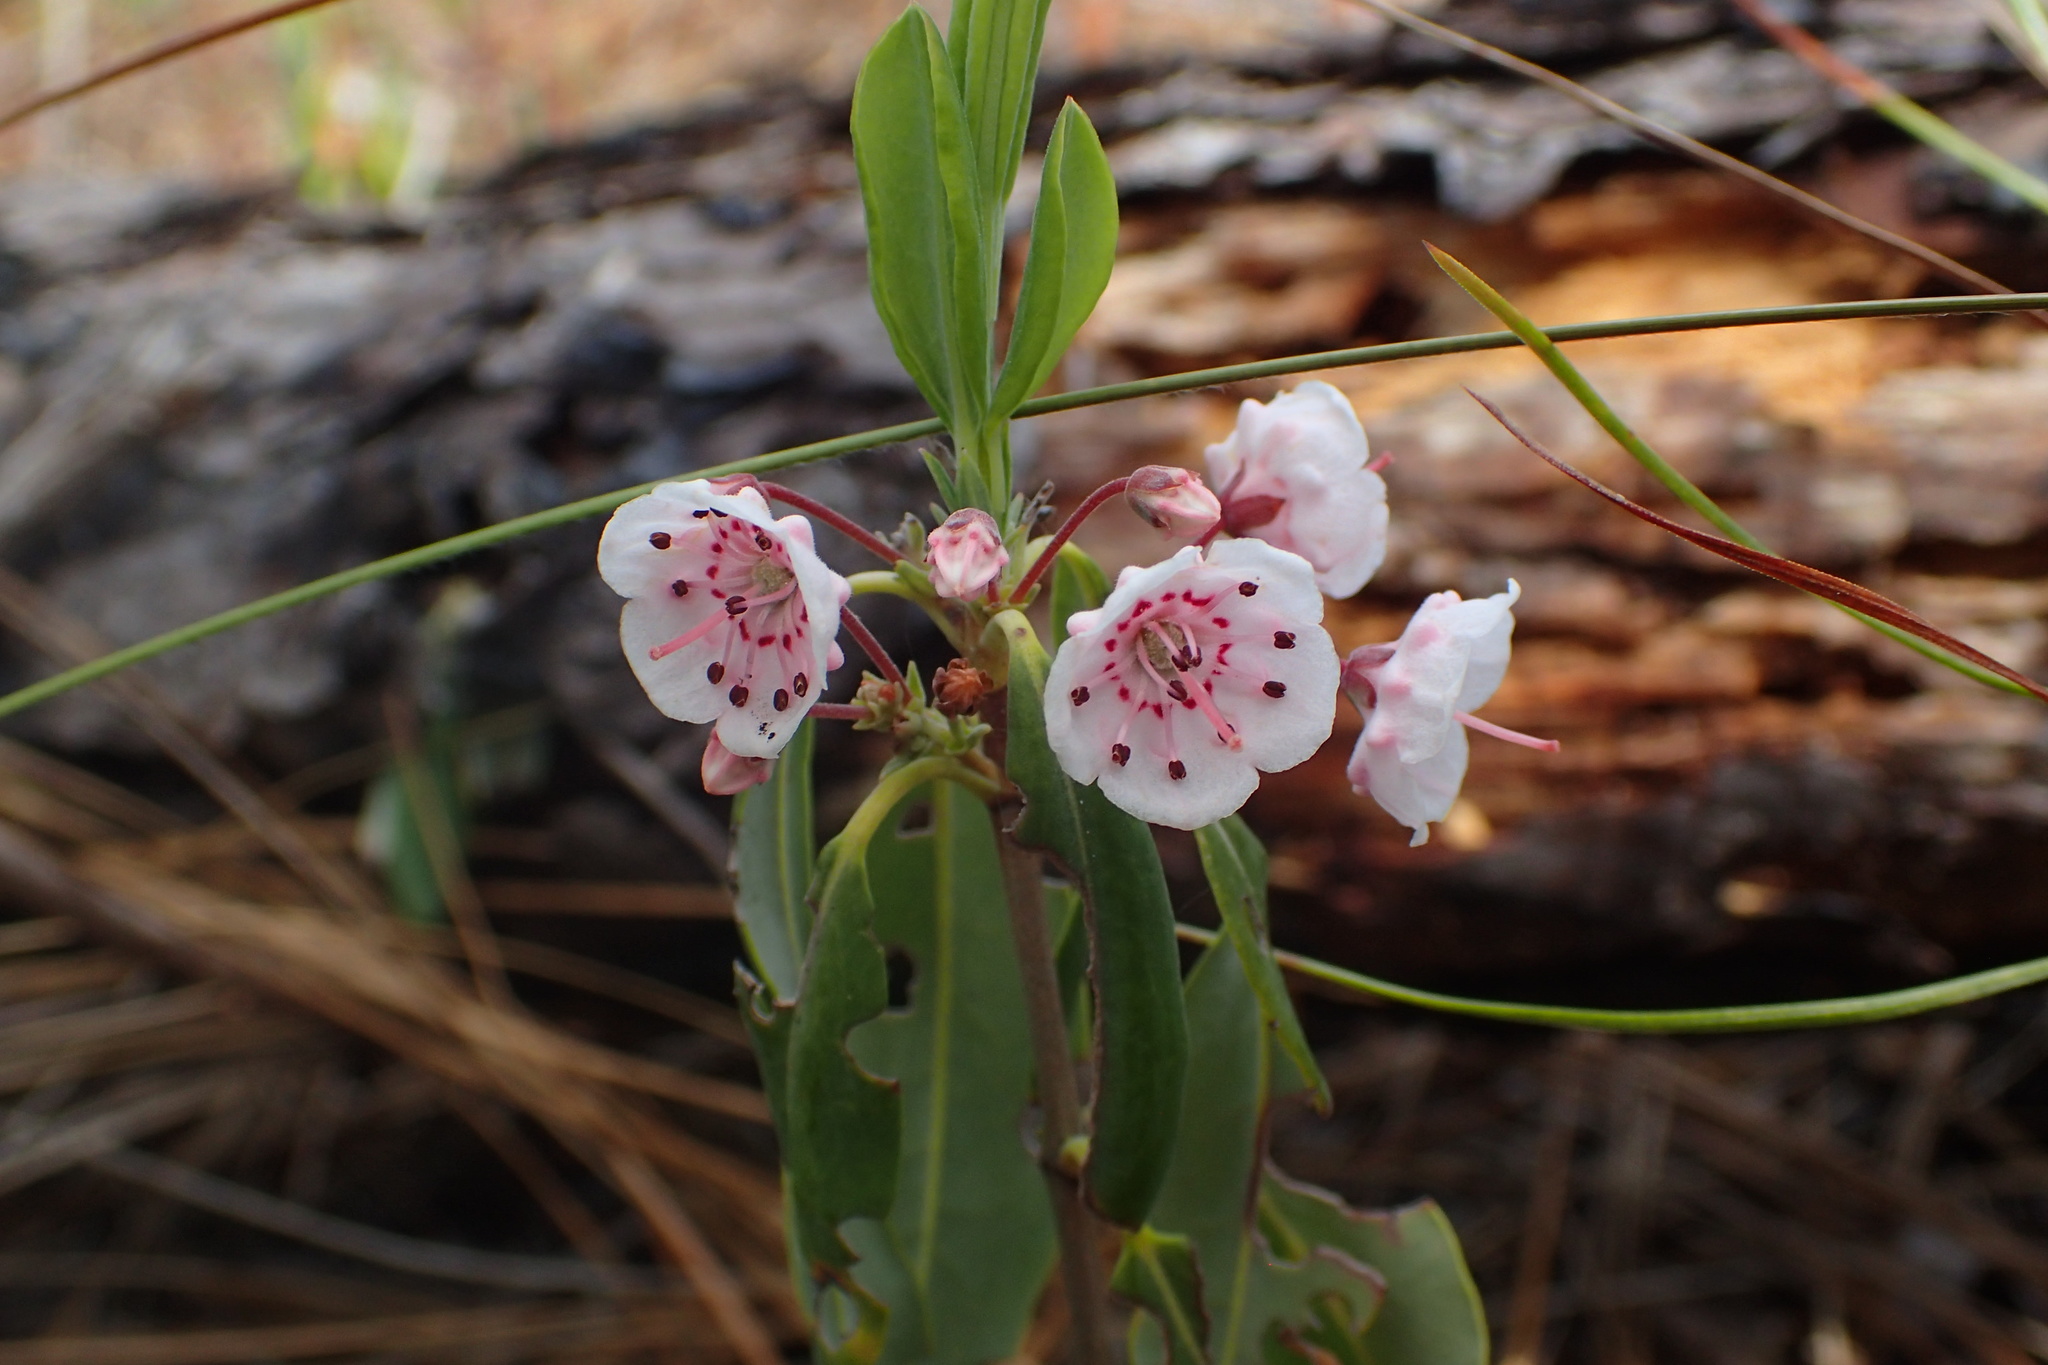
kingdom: Plantae
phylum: Tracheophyta
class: Magnoliopsida
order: Ericales
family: Ericaceae
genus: Kalmia
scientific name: Kalmia angustifolia
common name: Sheep-laurel
